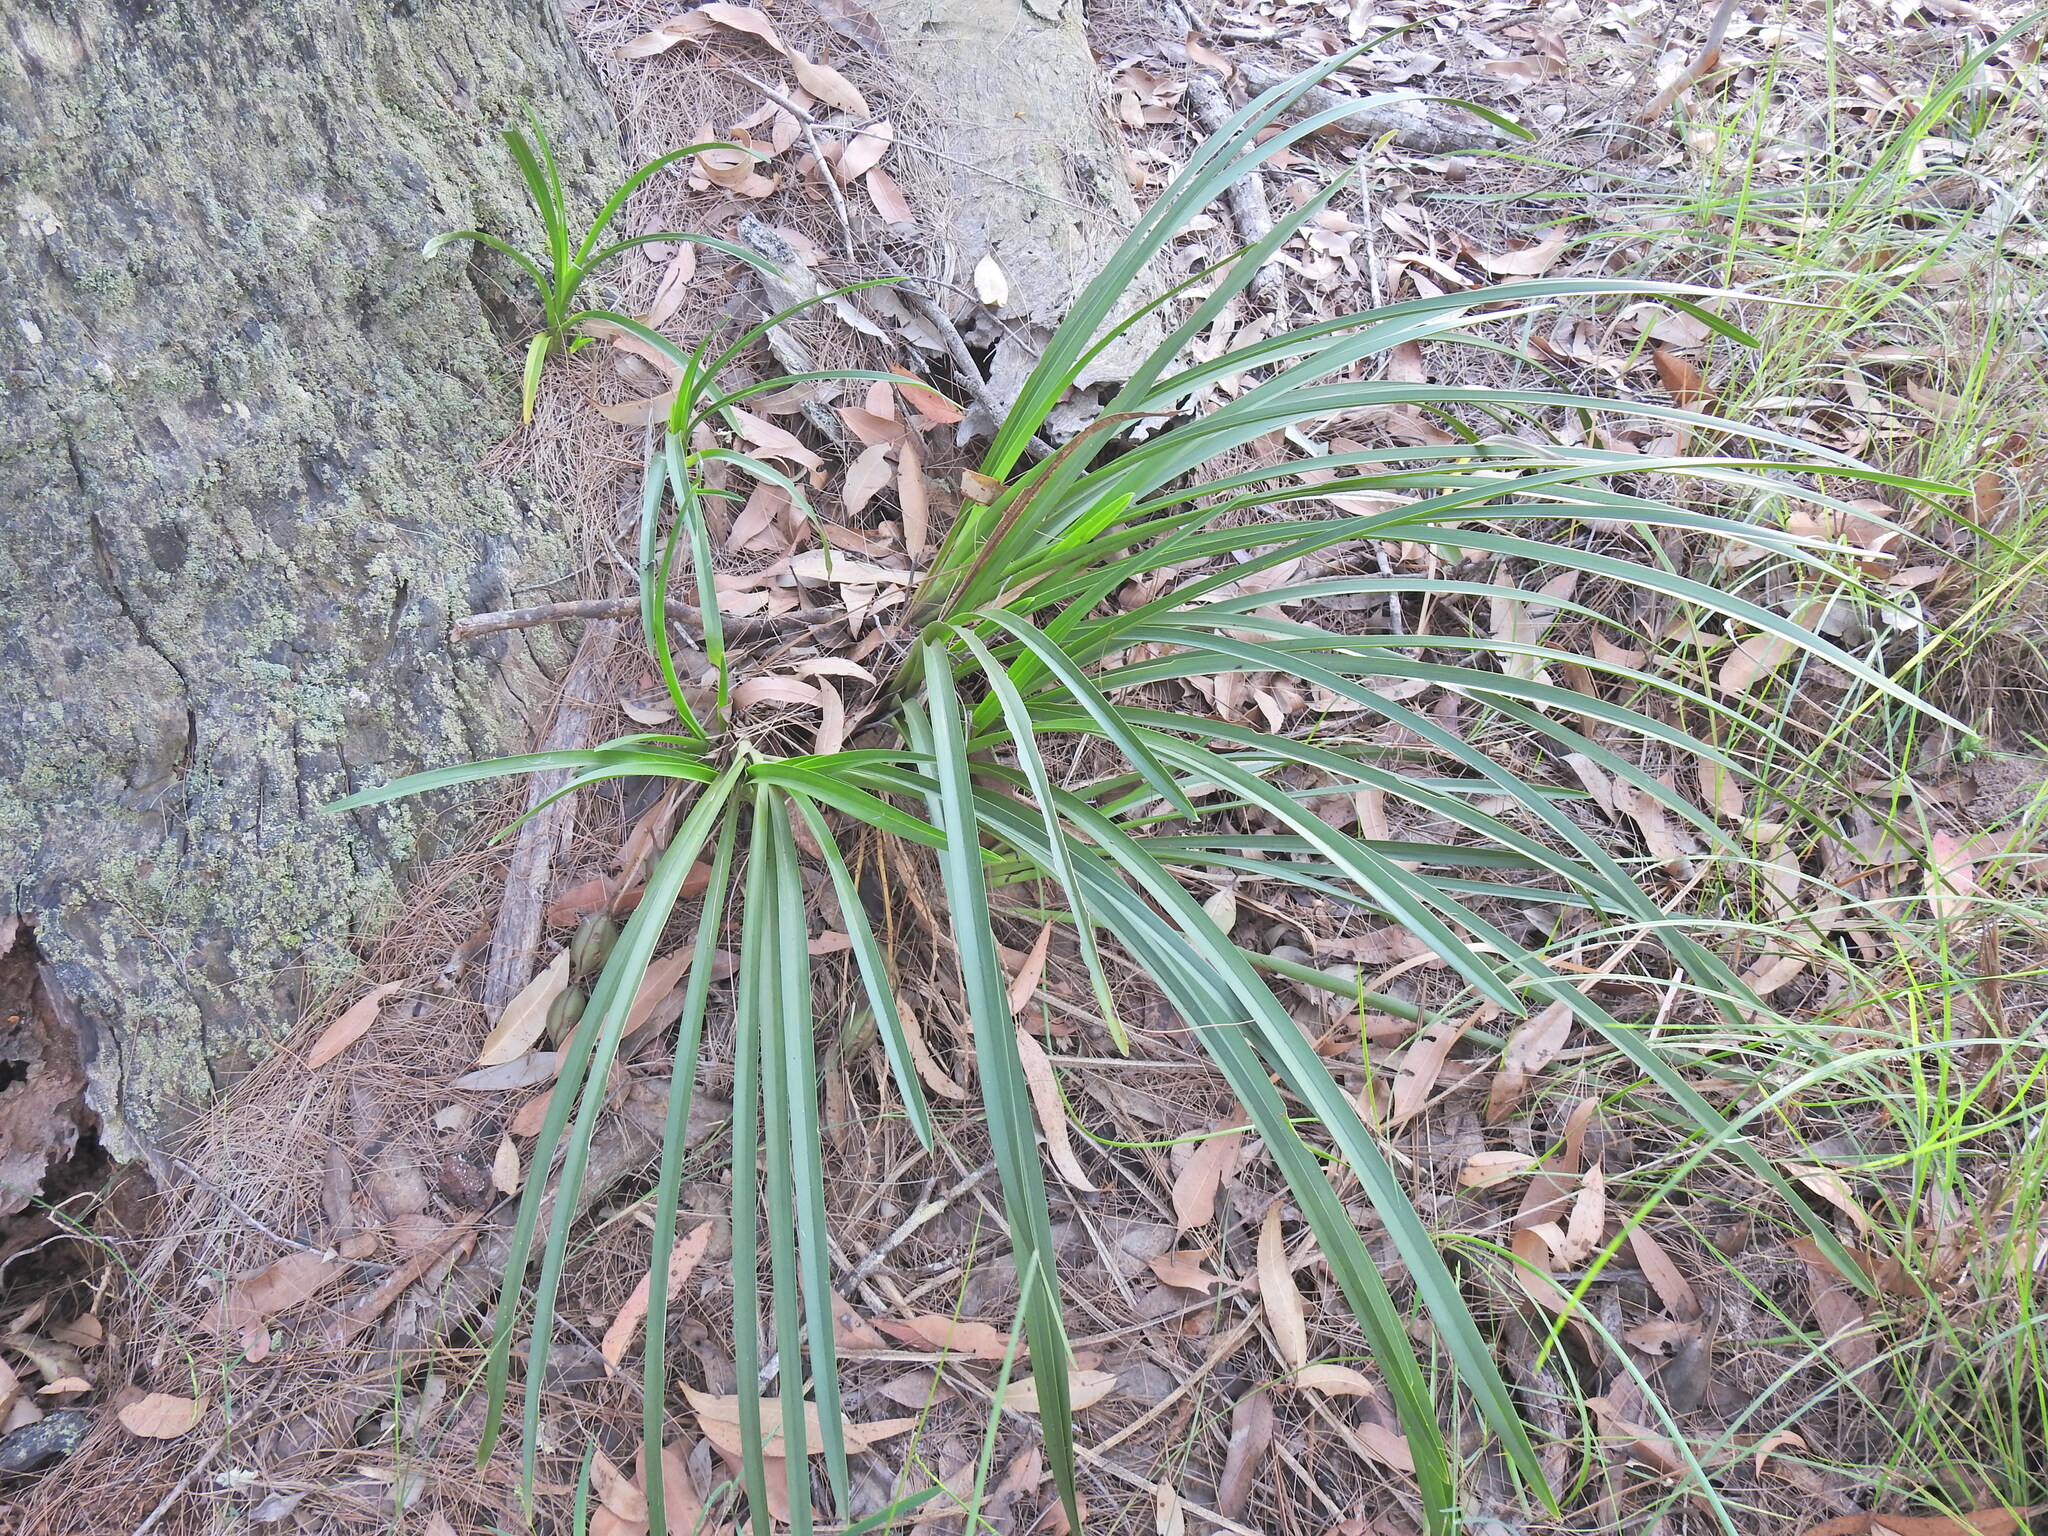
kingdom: Plantae
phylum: Tracheophyta
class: Liliopsida
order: Asparagales
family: Orchidaceae
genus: Cymbidium
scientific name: Cymbidium suave
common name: Snake orchid
